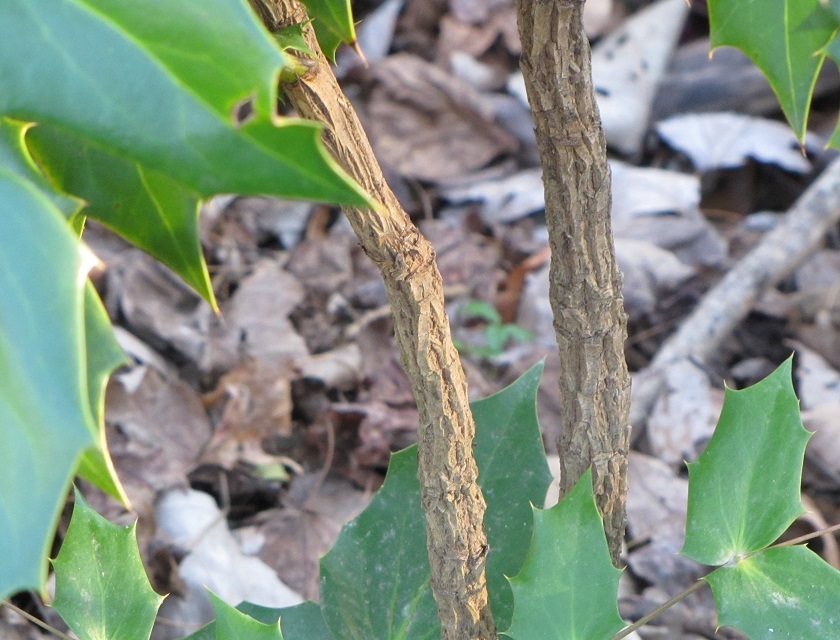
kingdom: Plantae
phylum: Tracheophyta
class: Magnoliopsida
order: Ranunculales
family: Berberidaceae
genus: Mahonia
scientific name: Mahonia bealei
